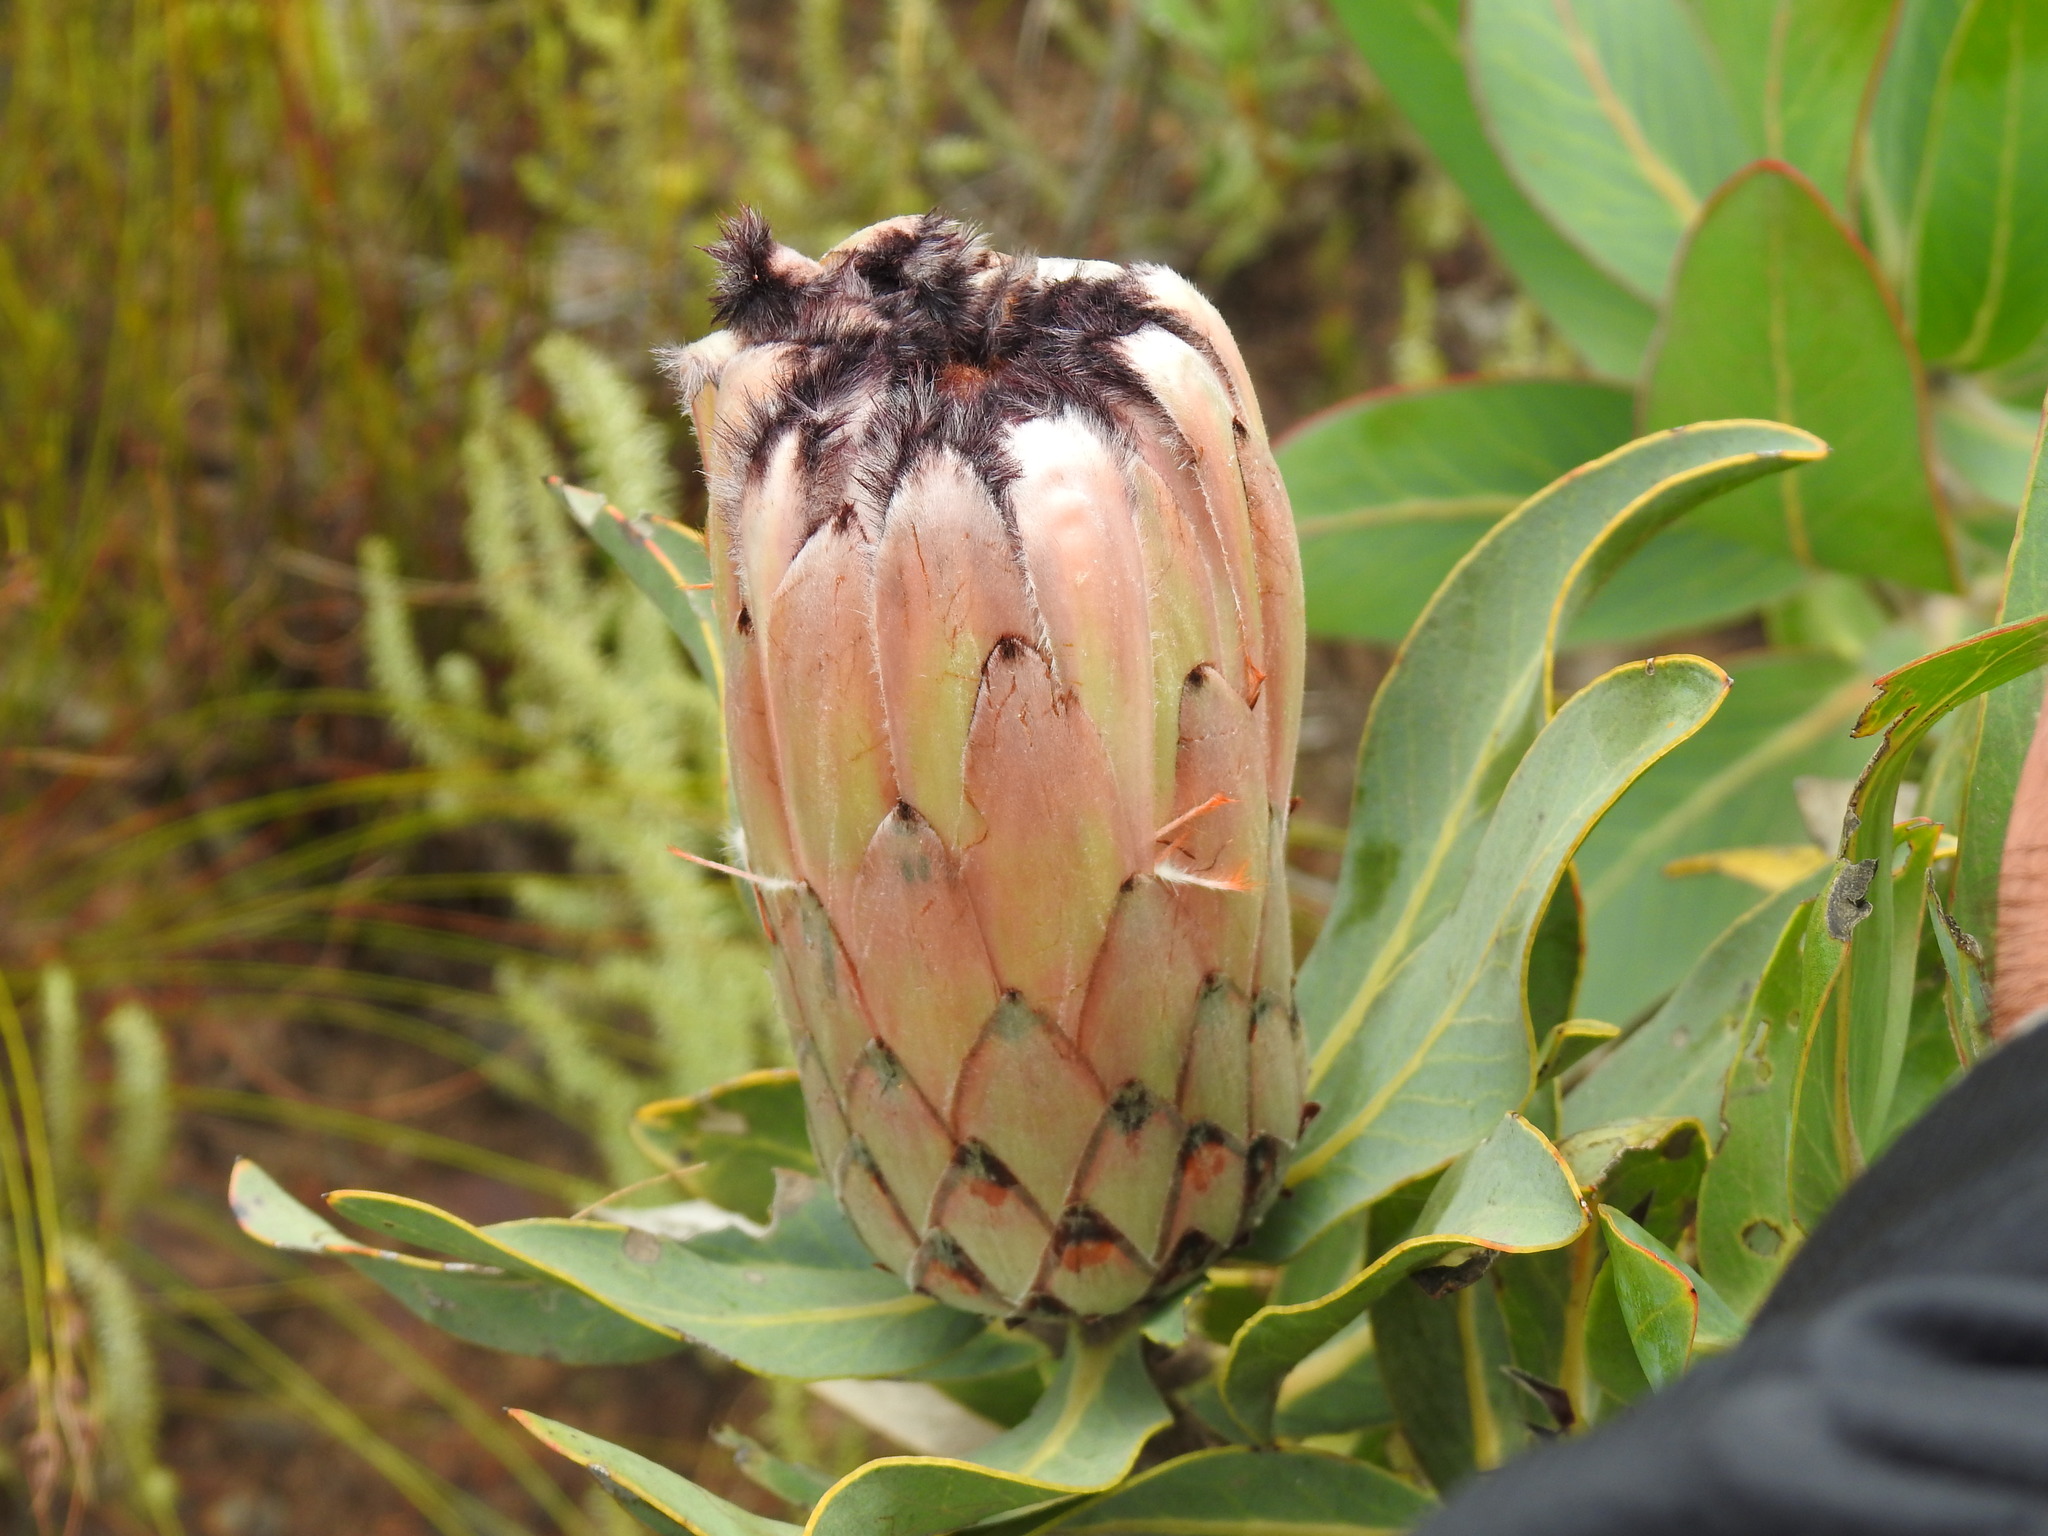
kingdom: Plantae
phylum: Tracheophyta
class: Magnoliopsida
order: Proteales
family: Proteaceae
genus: Protea
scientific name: Protea laurifolia
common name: Grey-leaf sugarbsh
